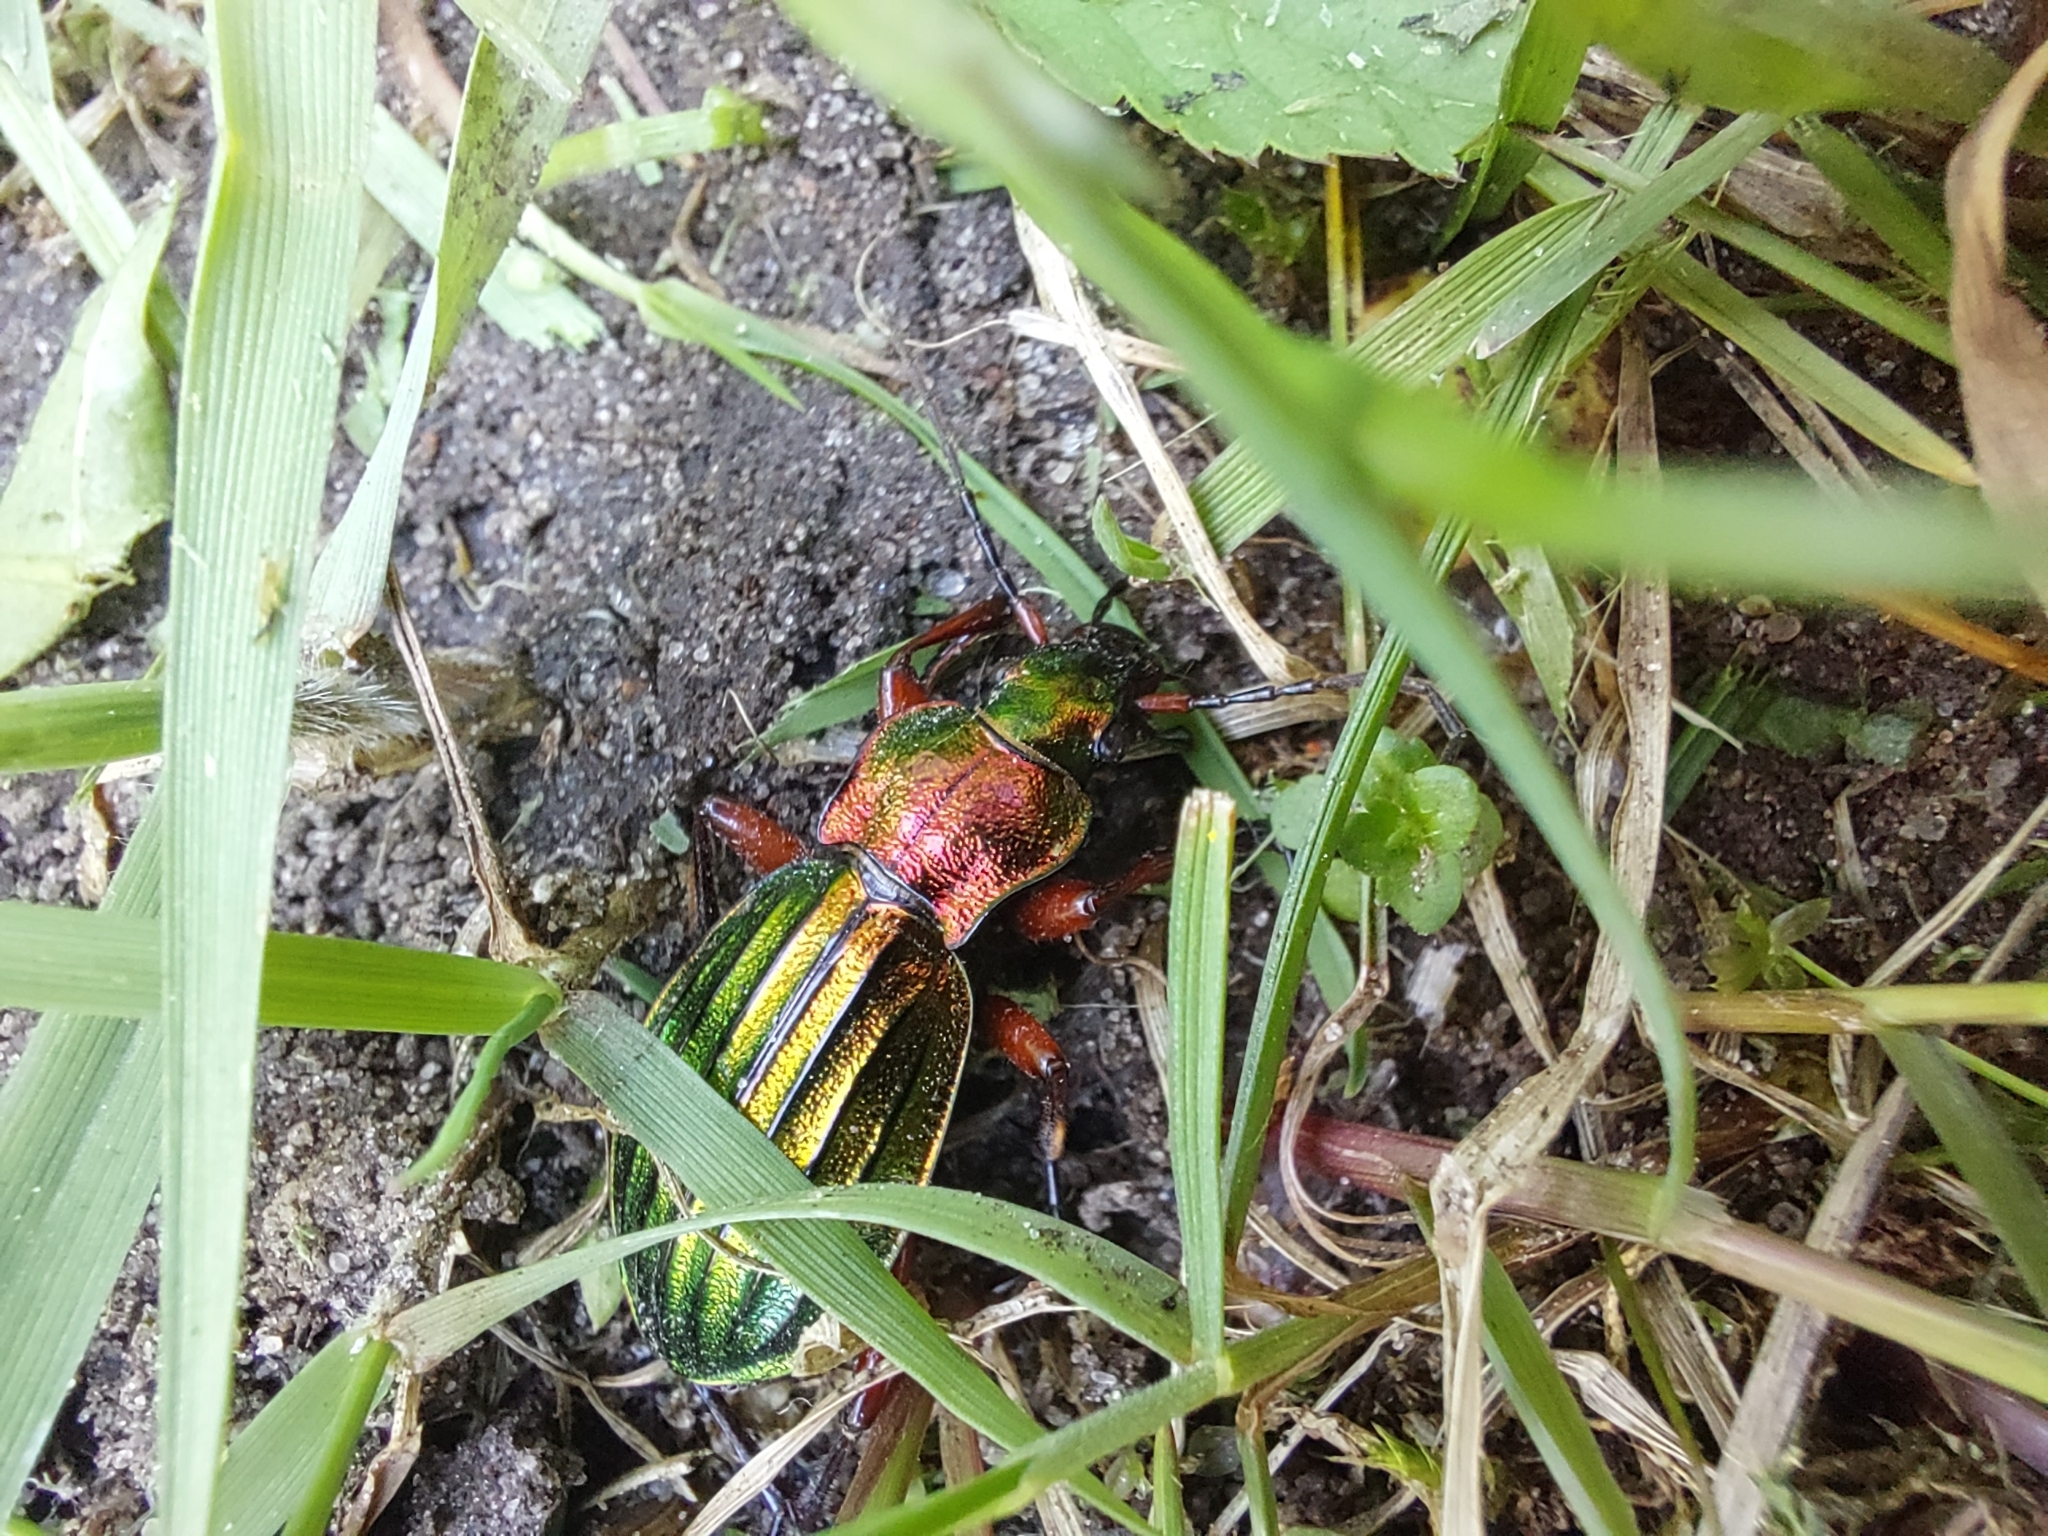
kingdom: Animalia
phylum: Arthropoda
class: Insecta
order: Coleoptera
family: Carabidae
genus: Carabus
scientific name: Carabus auronitens
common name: Carabus auronitens
